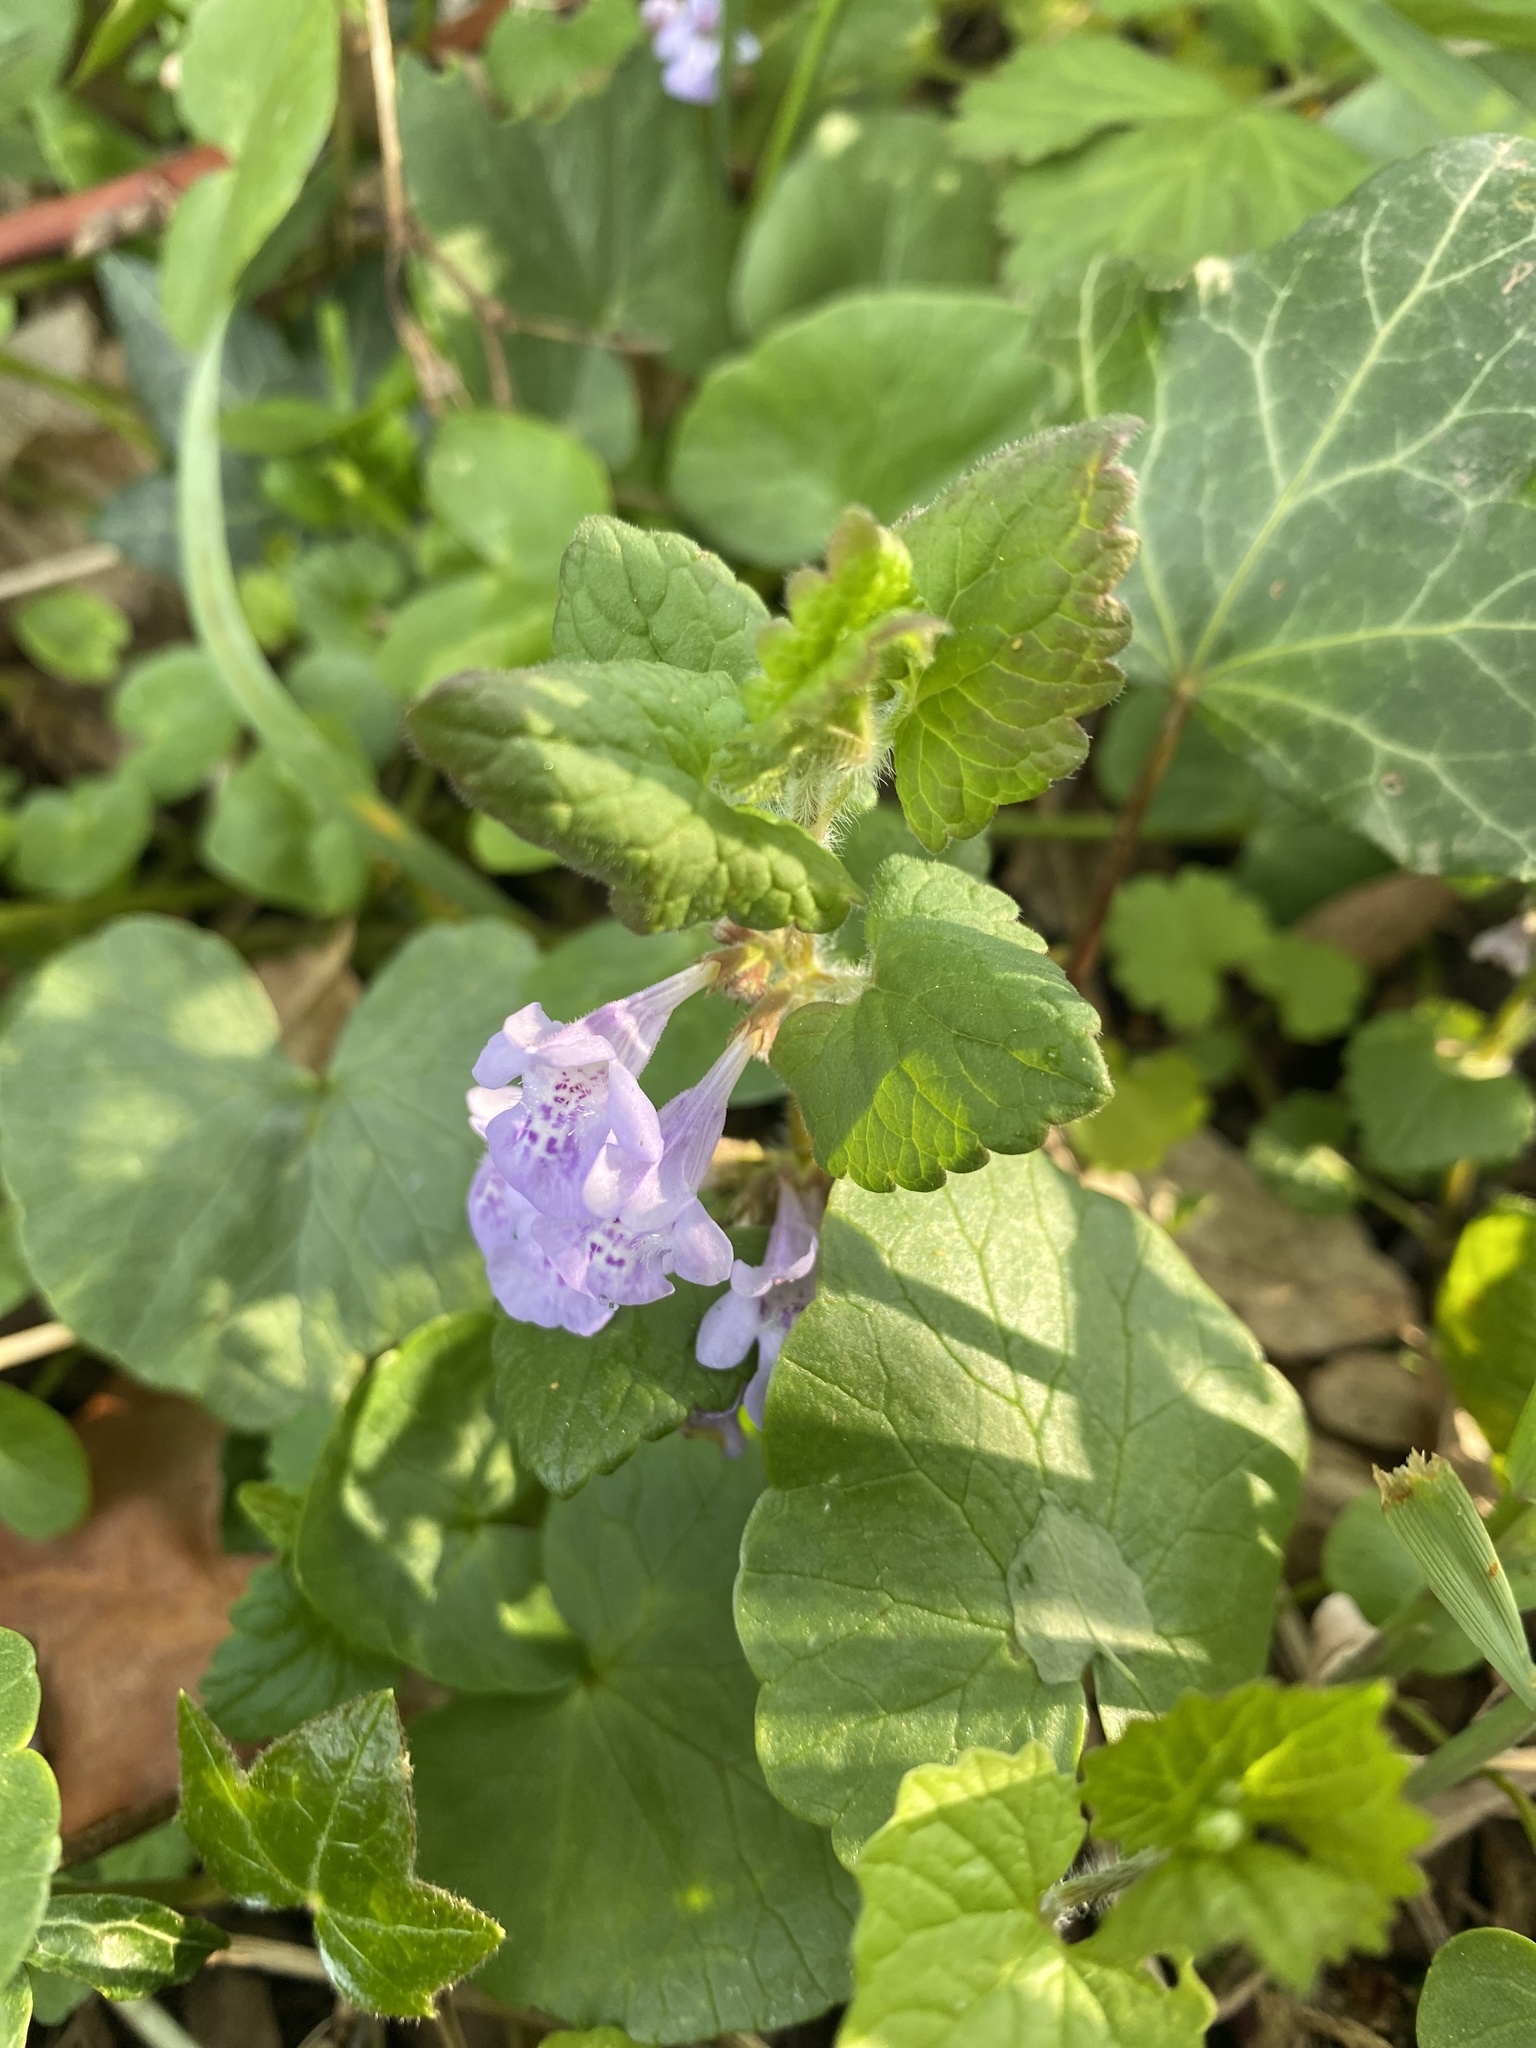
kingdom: Plantae
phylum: Tracheophyta
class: Magnoliopsida
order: Lamiales
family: Lamiaceae
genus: Glechoma
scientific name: Glechoma hederacea
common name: Ground ivy
